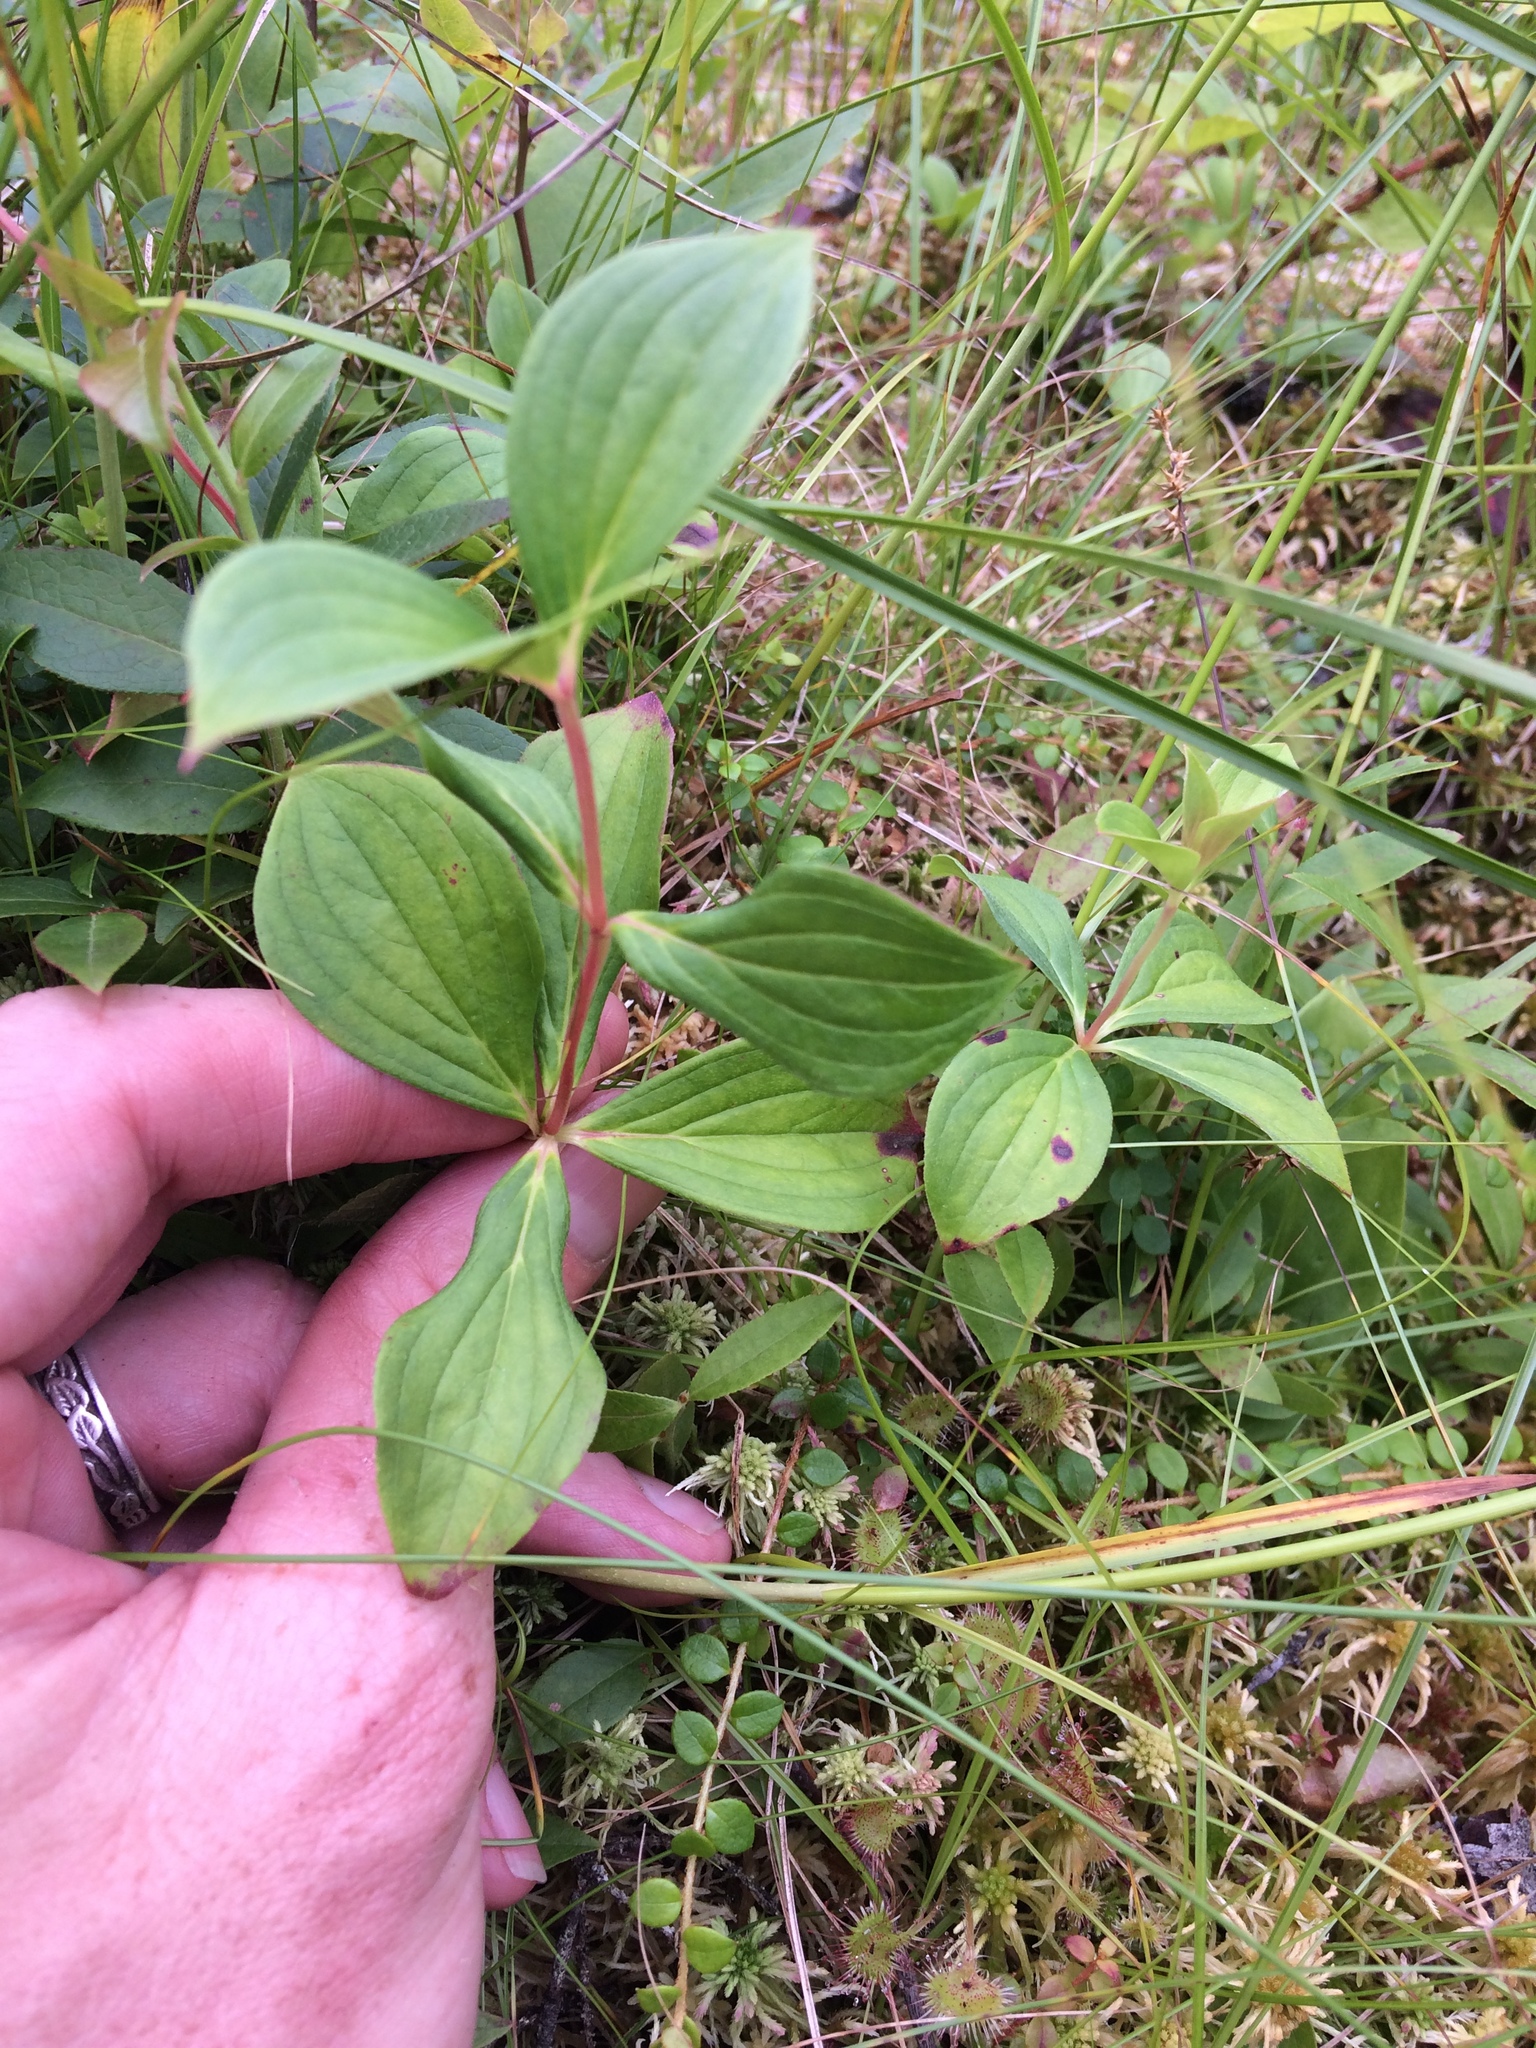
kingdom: Plantae
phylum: Tracheophyta
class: Magnoliopsida
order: Cornales
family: Cornaceae
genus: Cornus
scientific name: Cornus canadensis
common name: Creeping dogwood
